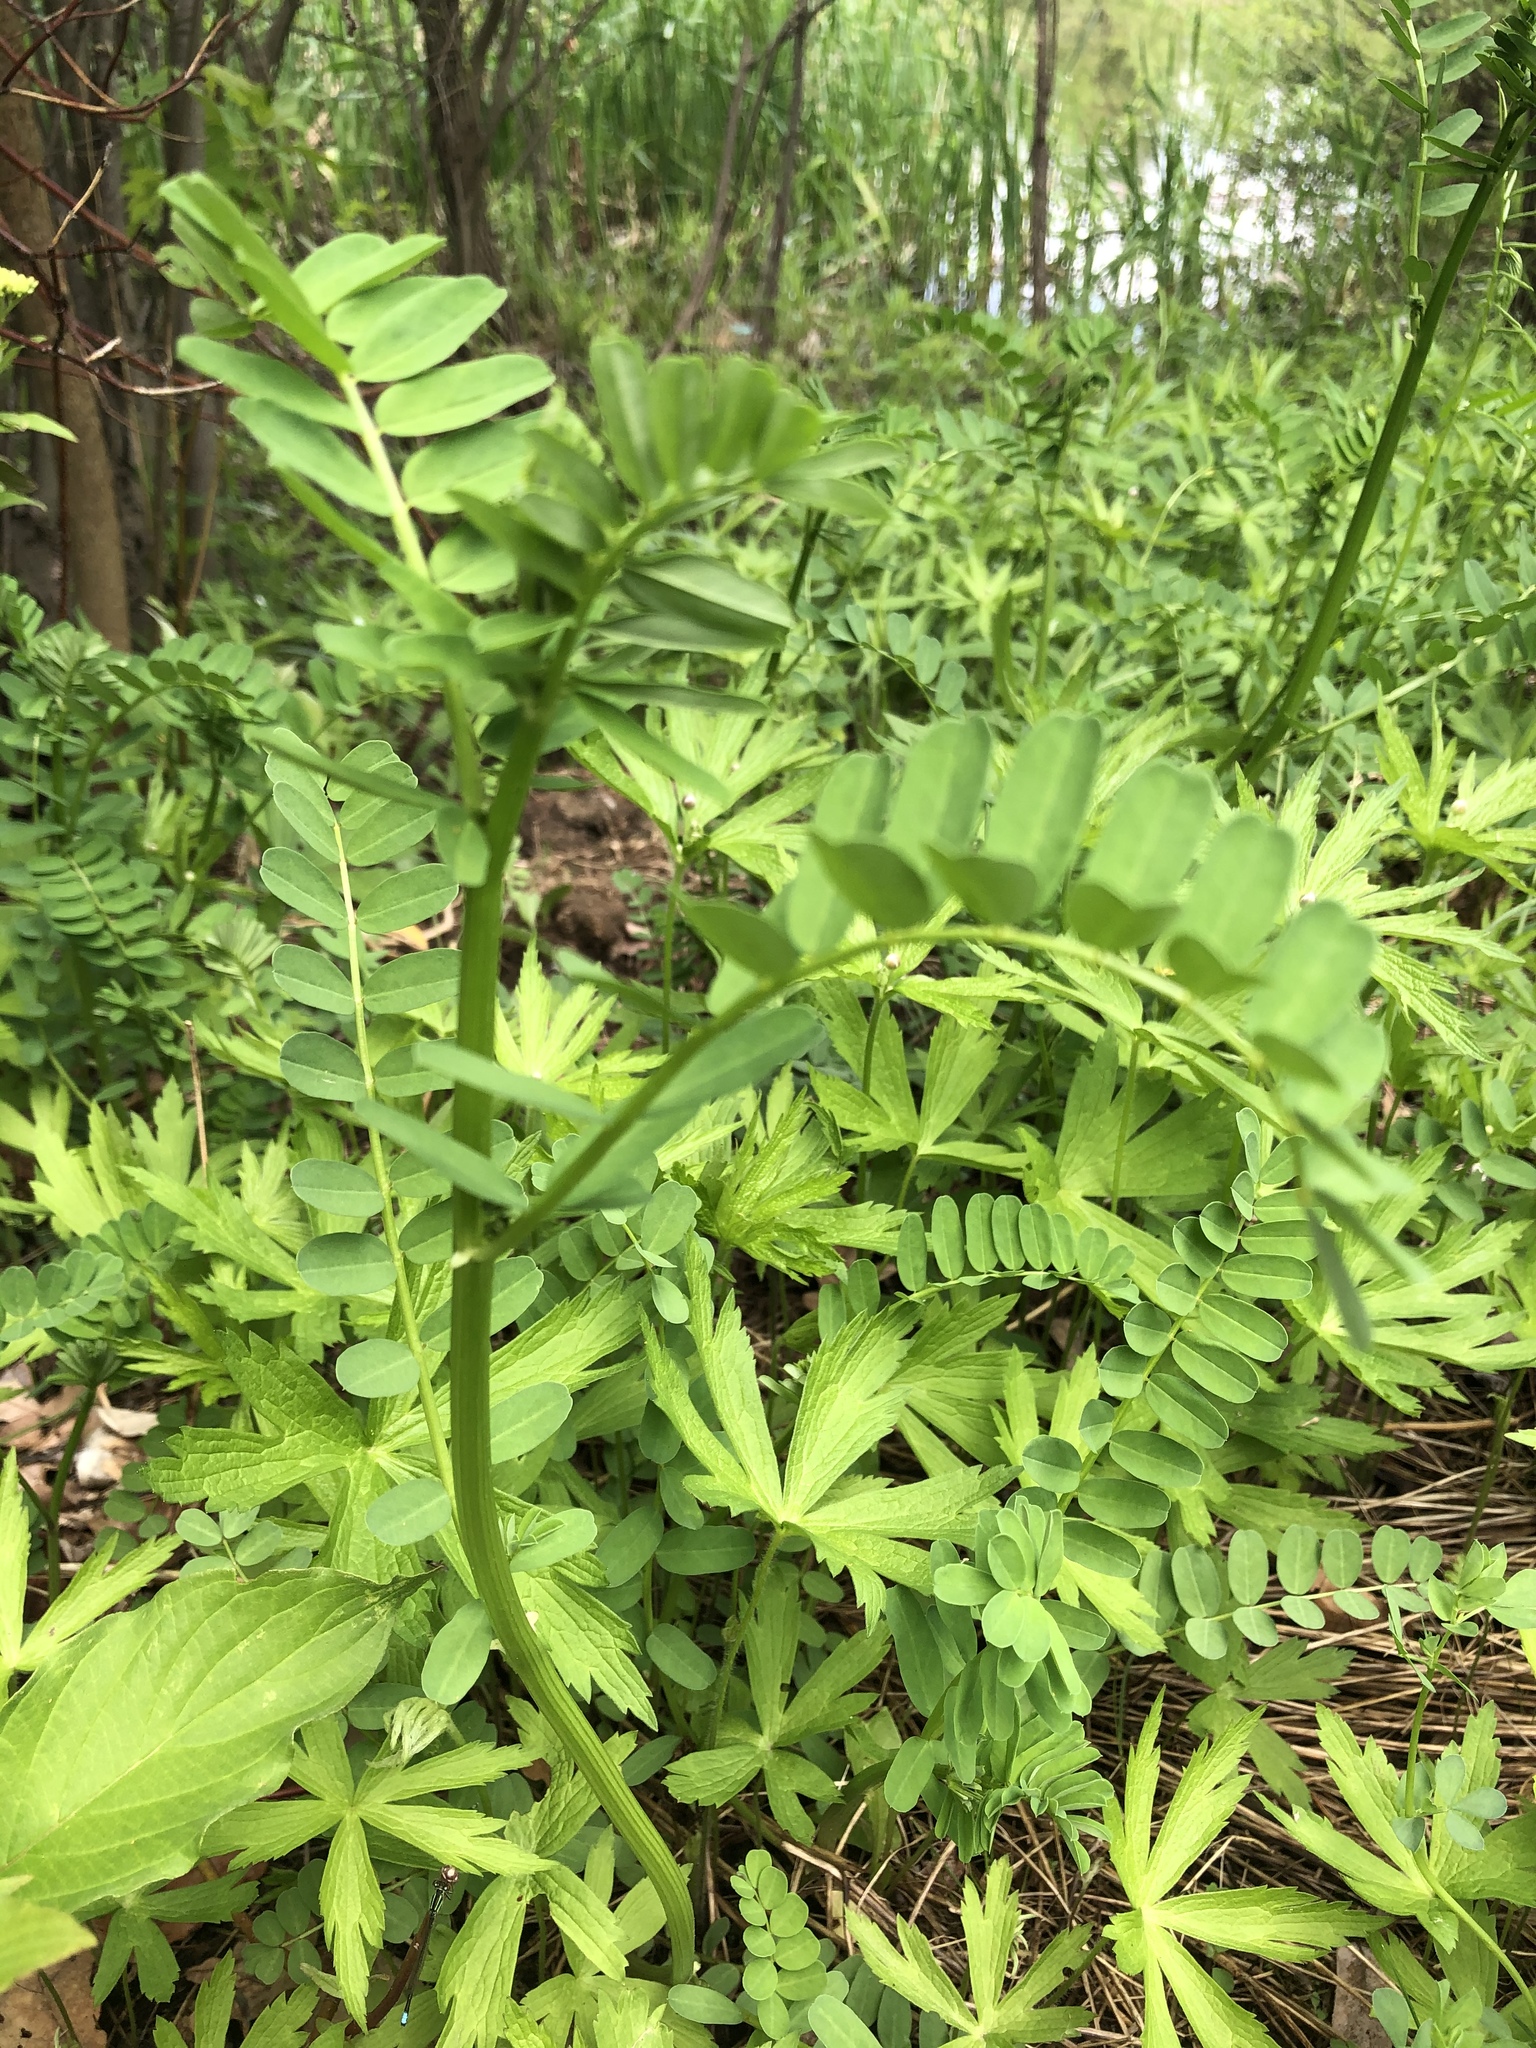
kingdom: Plantae
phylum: Tracheophyta
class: Magnoliopsida
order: Fabales
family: Fabaceae
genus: Coronilla
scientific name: Coronilla varia
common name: Crownvetch
